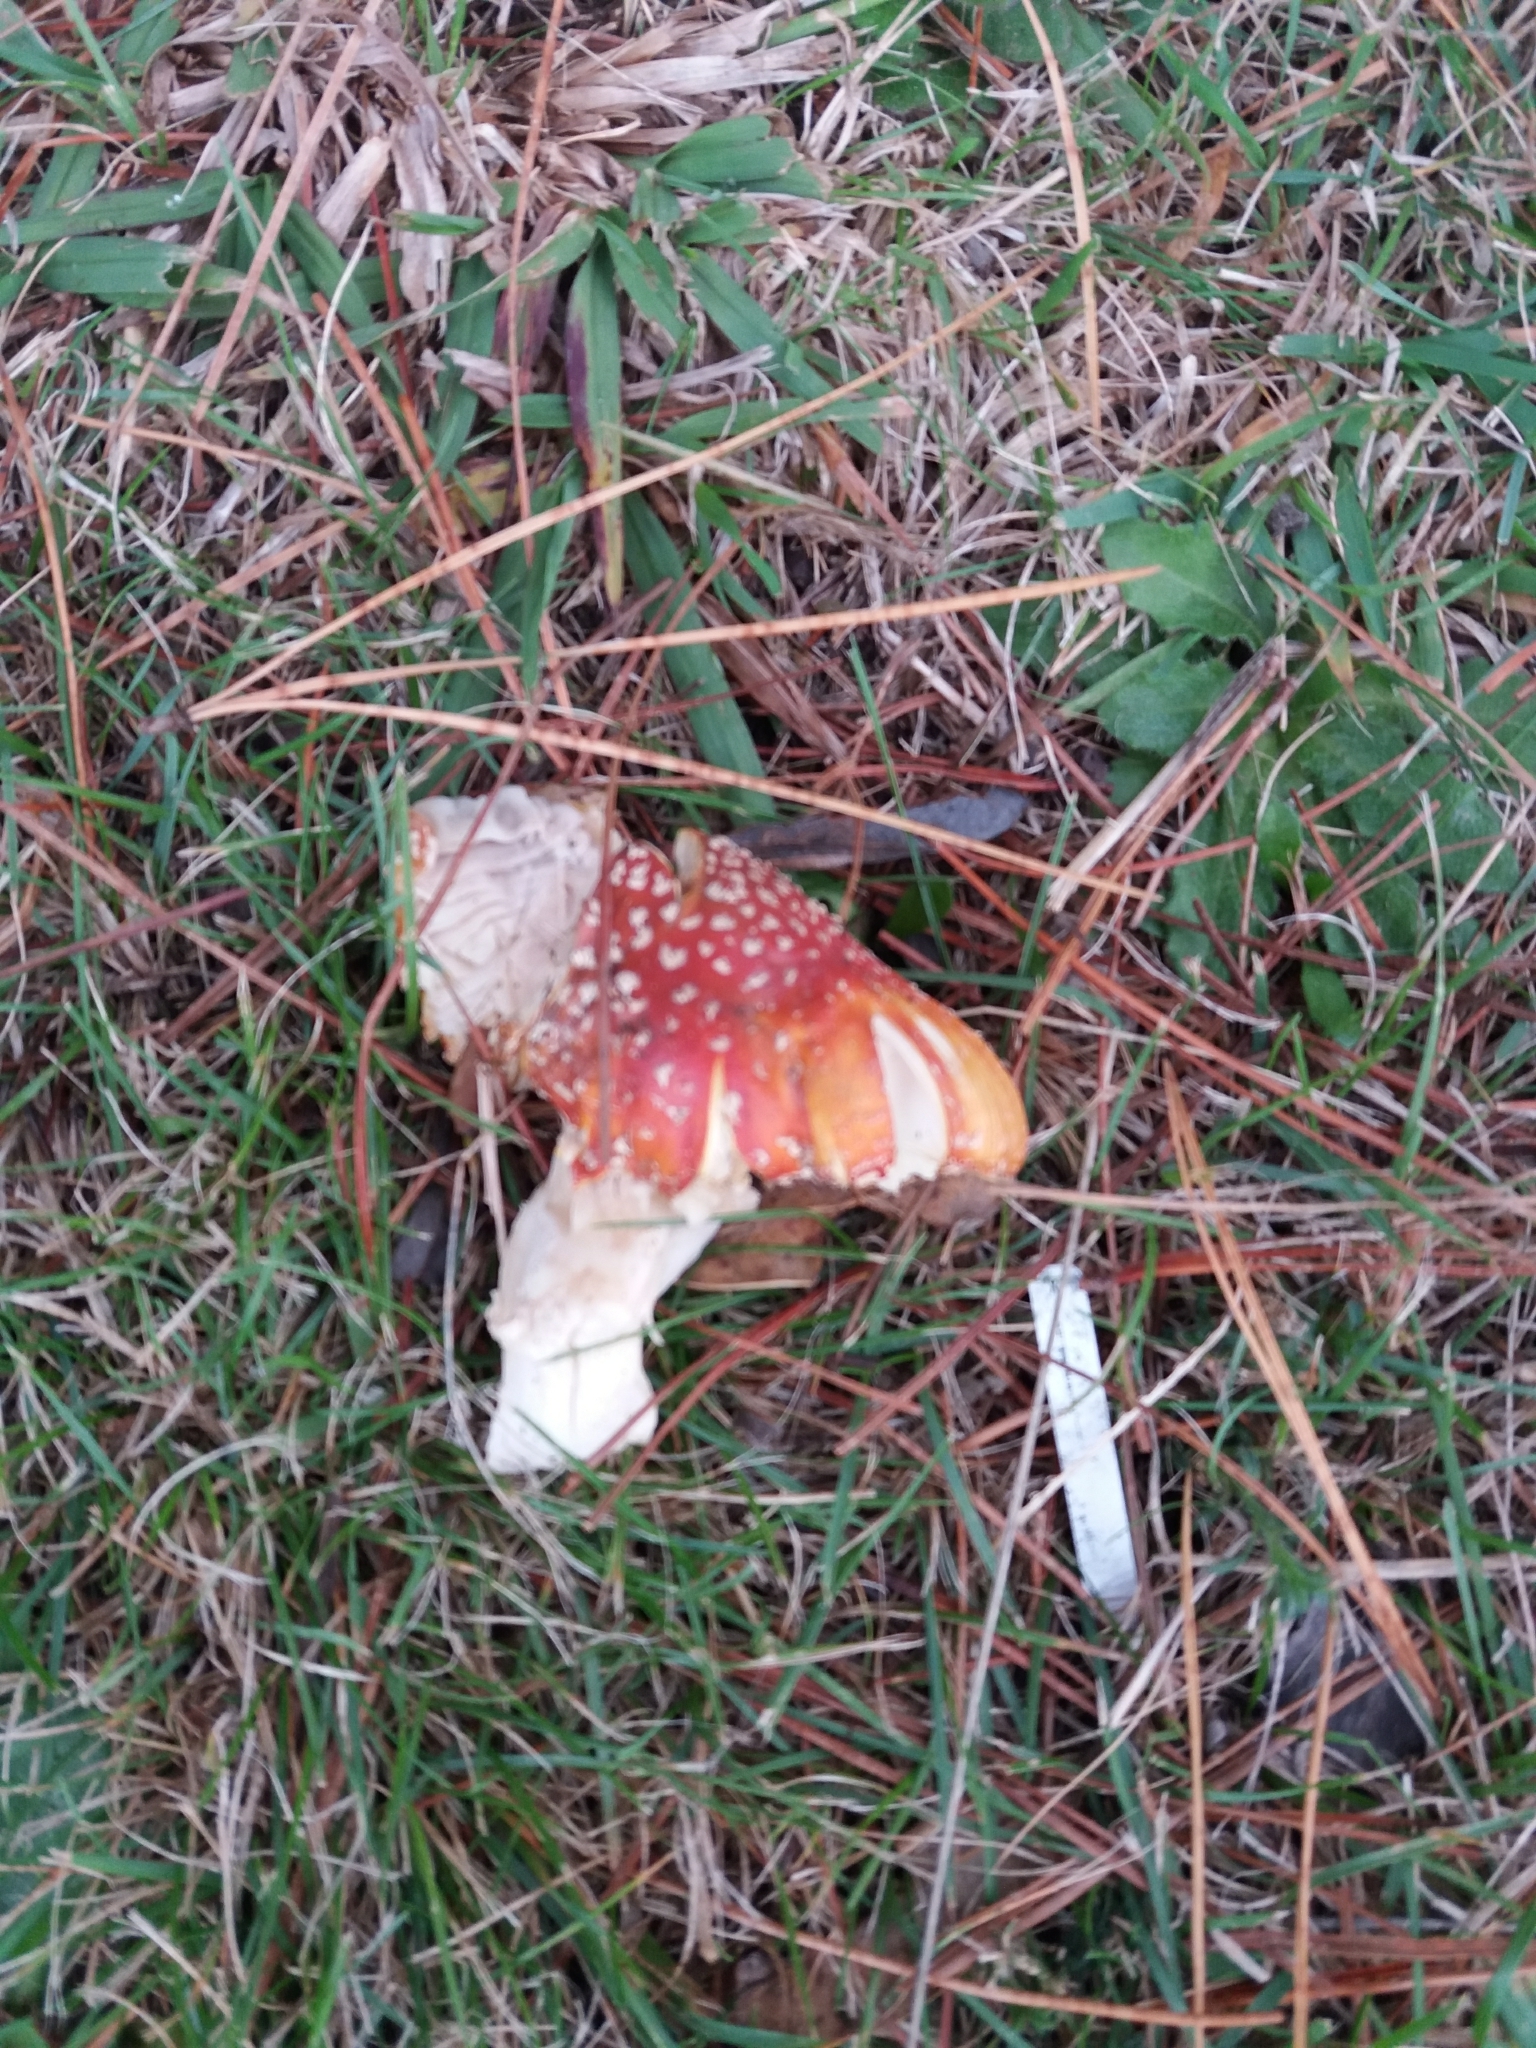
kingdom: Fungi
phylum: Basidiomycota
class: Agaricomycetes
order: Agaricales
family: Amanitaceae
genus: Amanita
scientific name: Amanita muscaria
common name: Fly agaric
